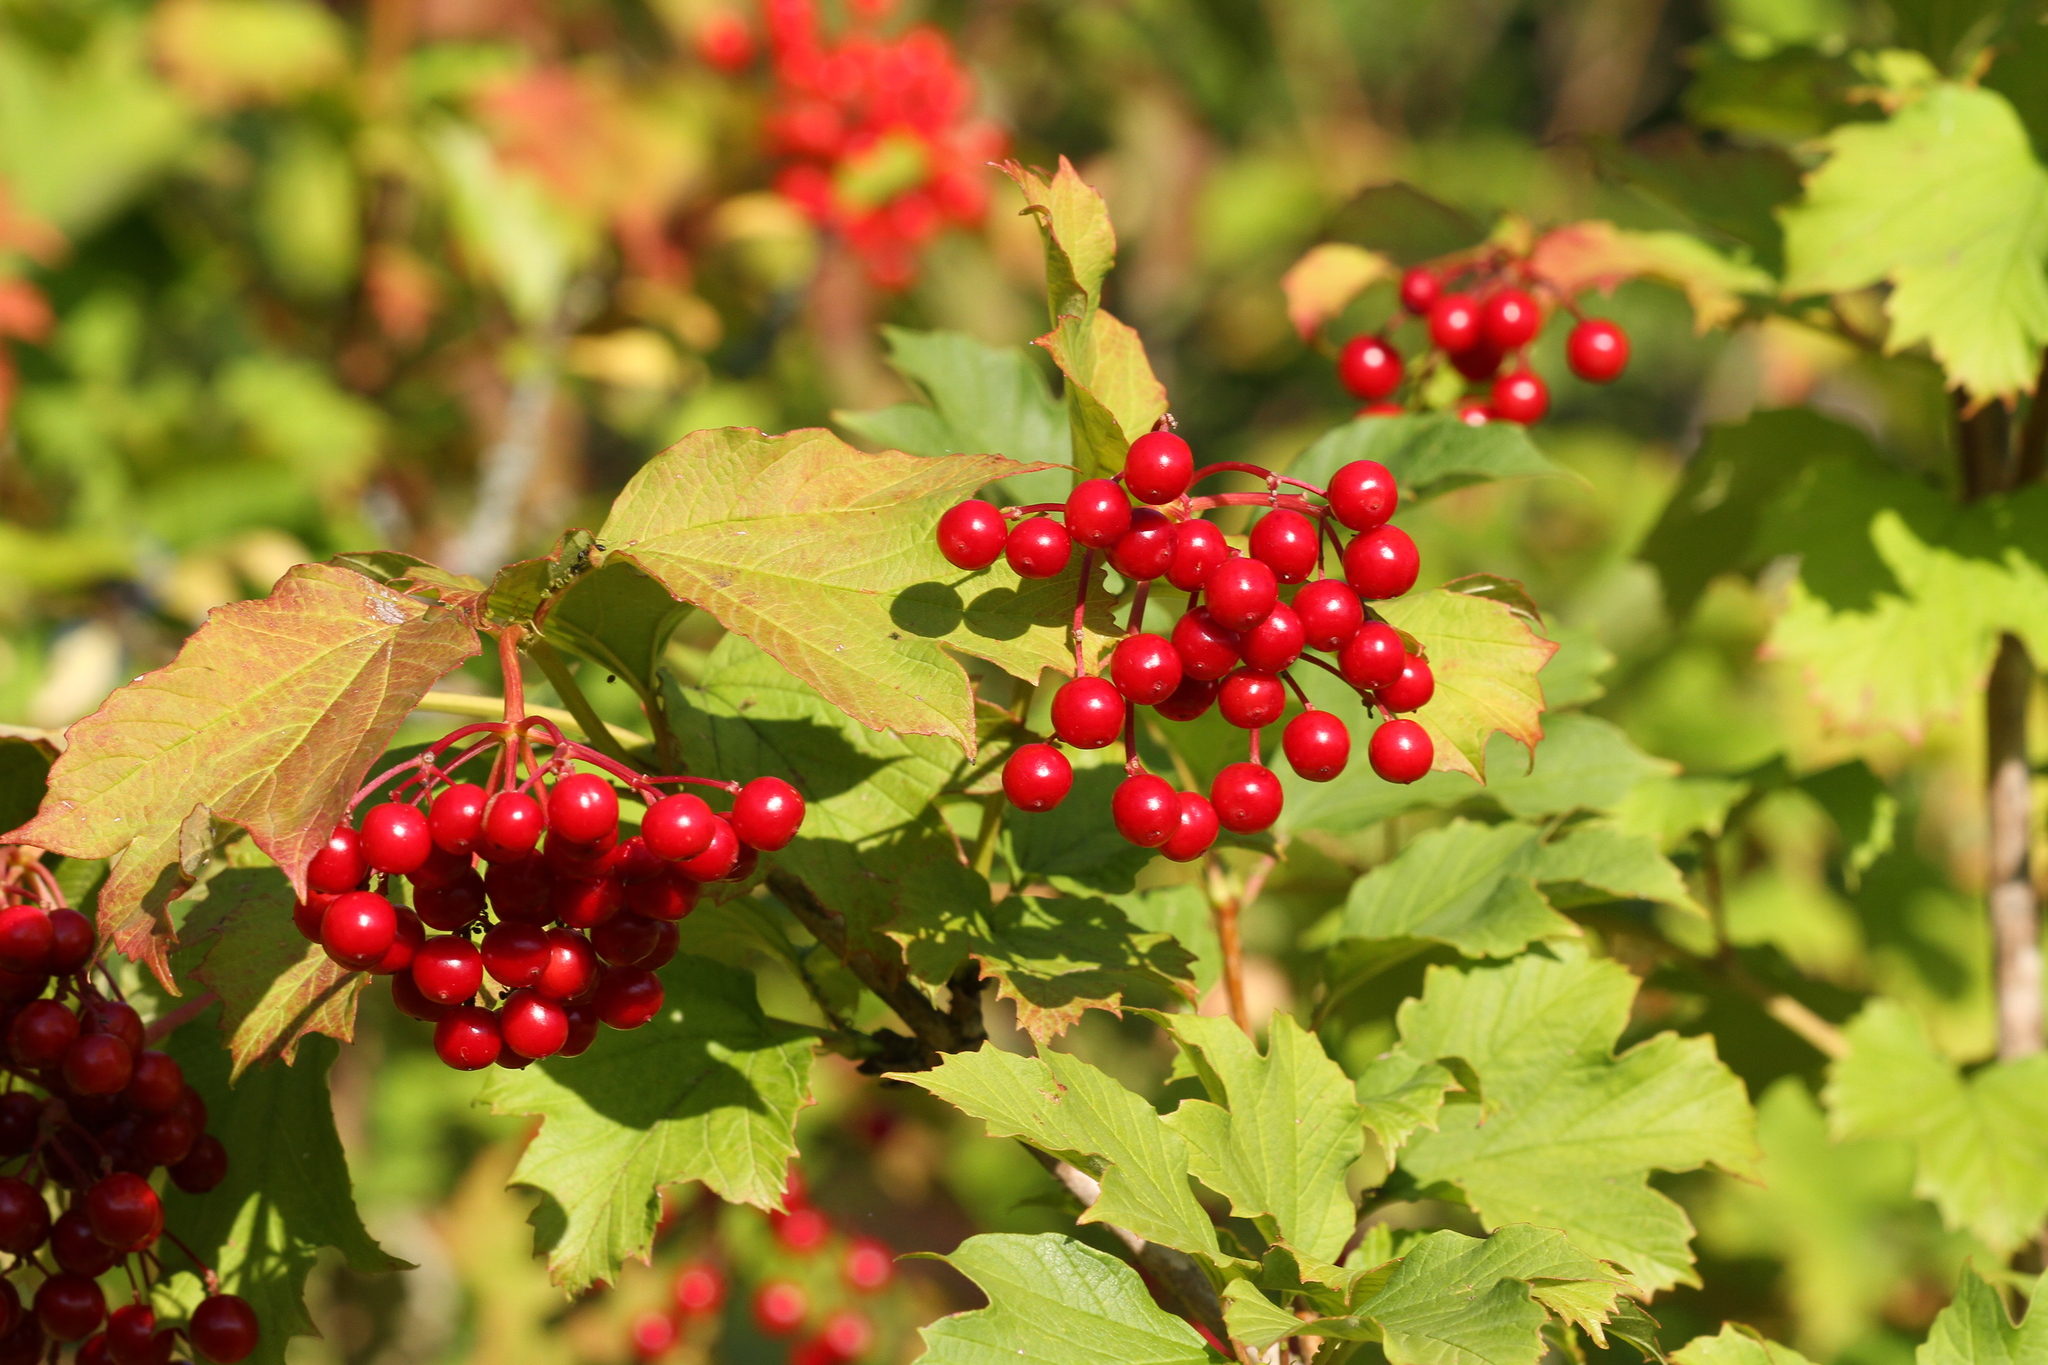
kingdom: Plantae
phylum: Tracheophyta
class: Magnoliopsida
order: Dipsacales
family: Viburnaceae
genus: Viburnum
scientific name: Viburnum opulus
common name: Guelder-rose
